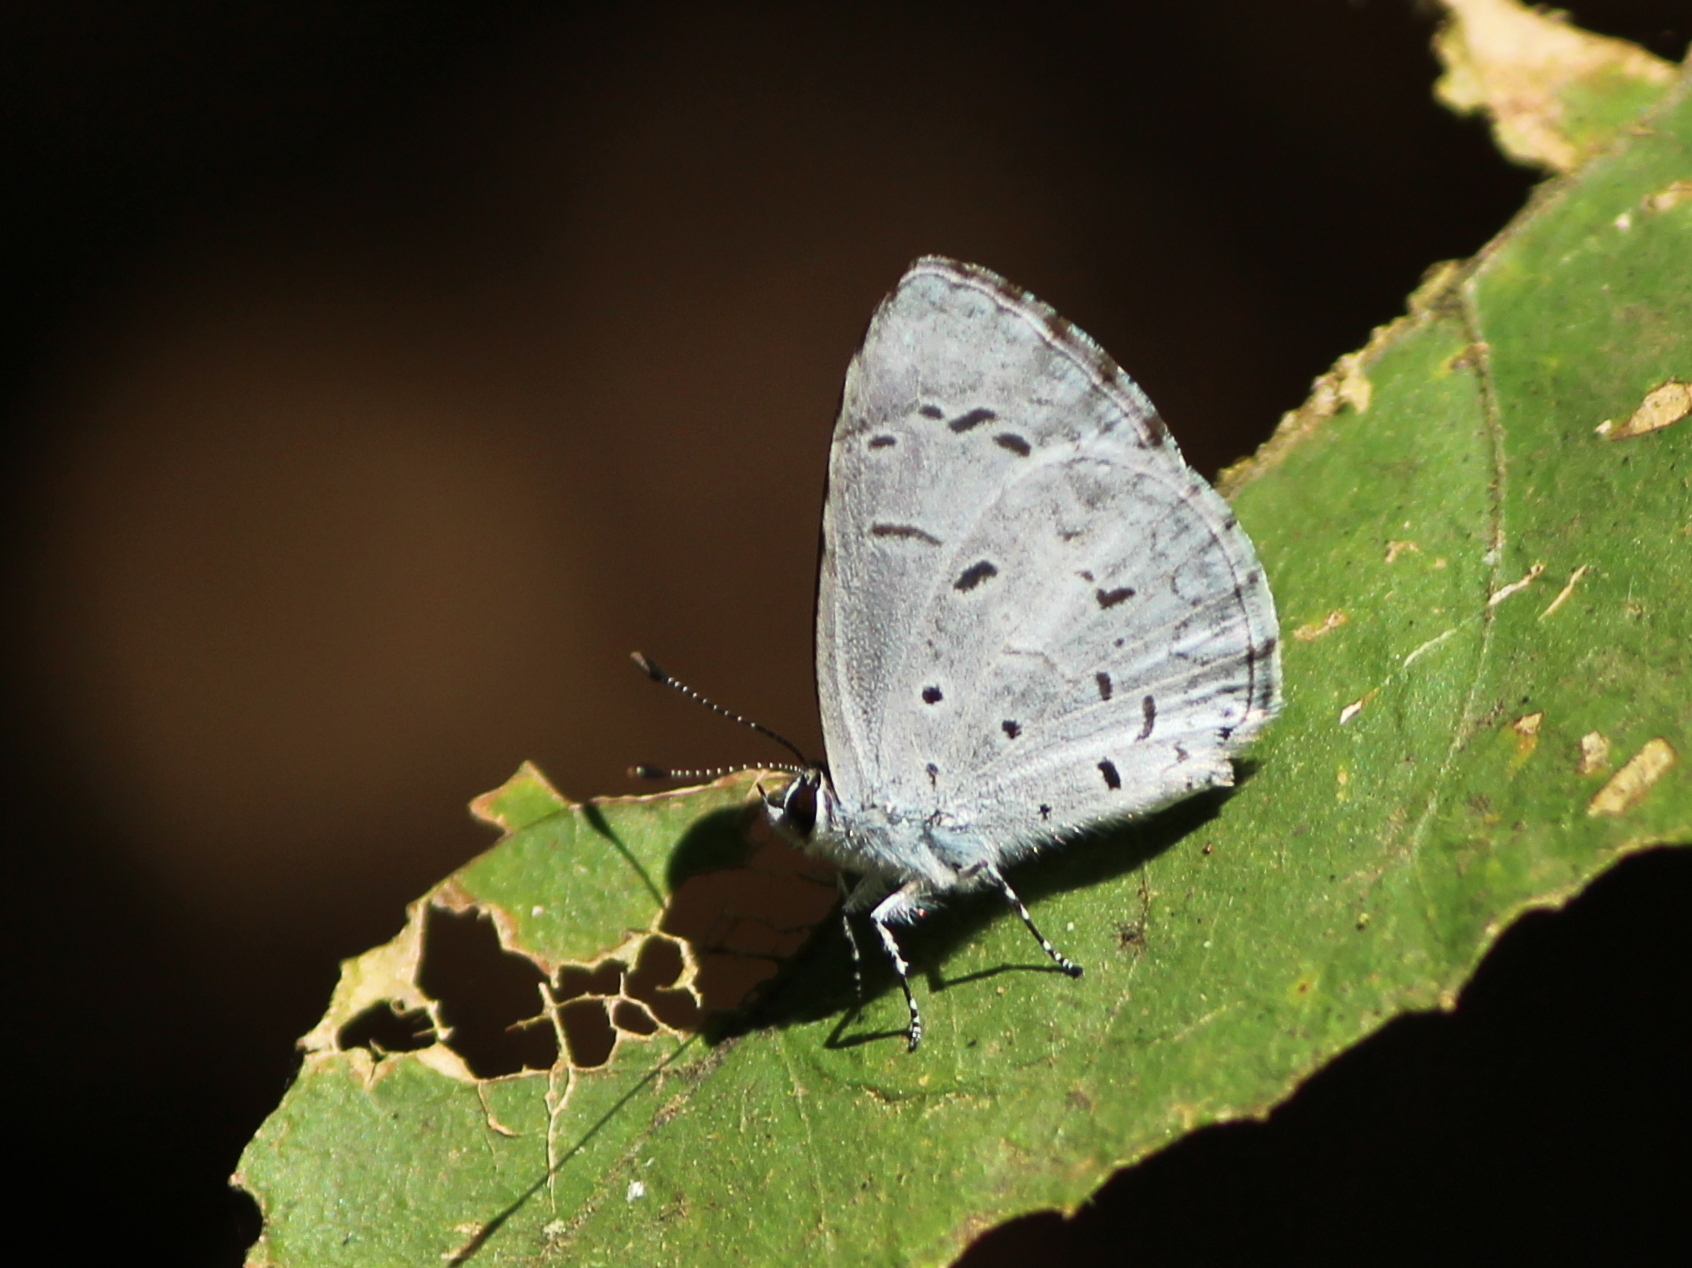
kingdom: Animalia
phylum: Arthropoda
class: Insecta
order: Lepidoptera
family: Lycaenidae
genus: Acytolepis
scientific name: Acytolepis puspa
